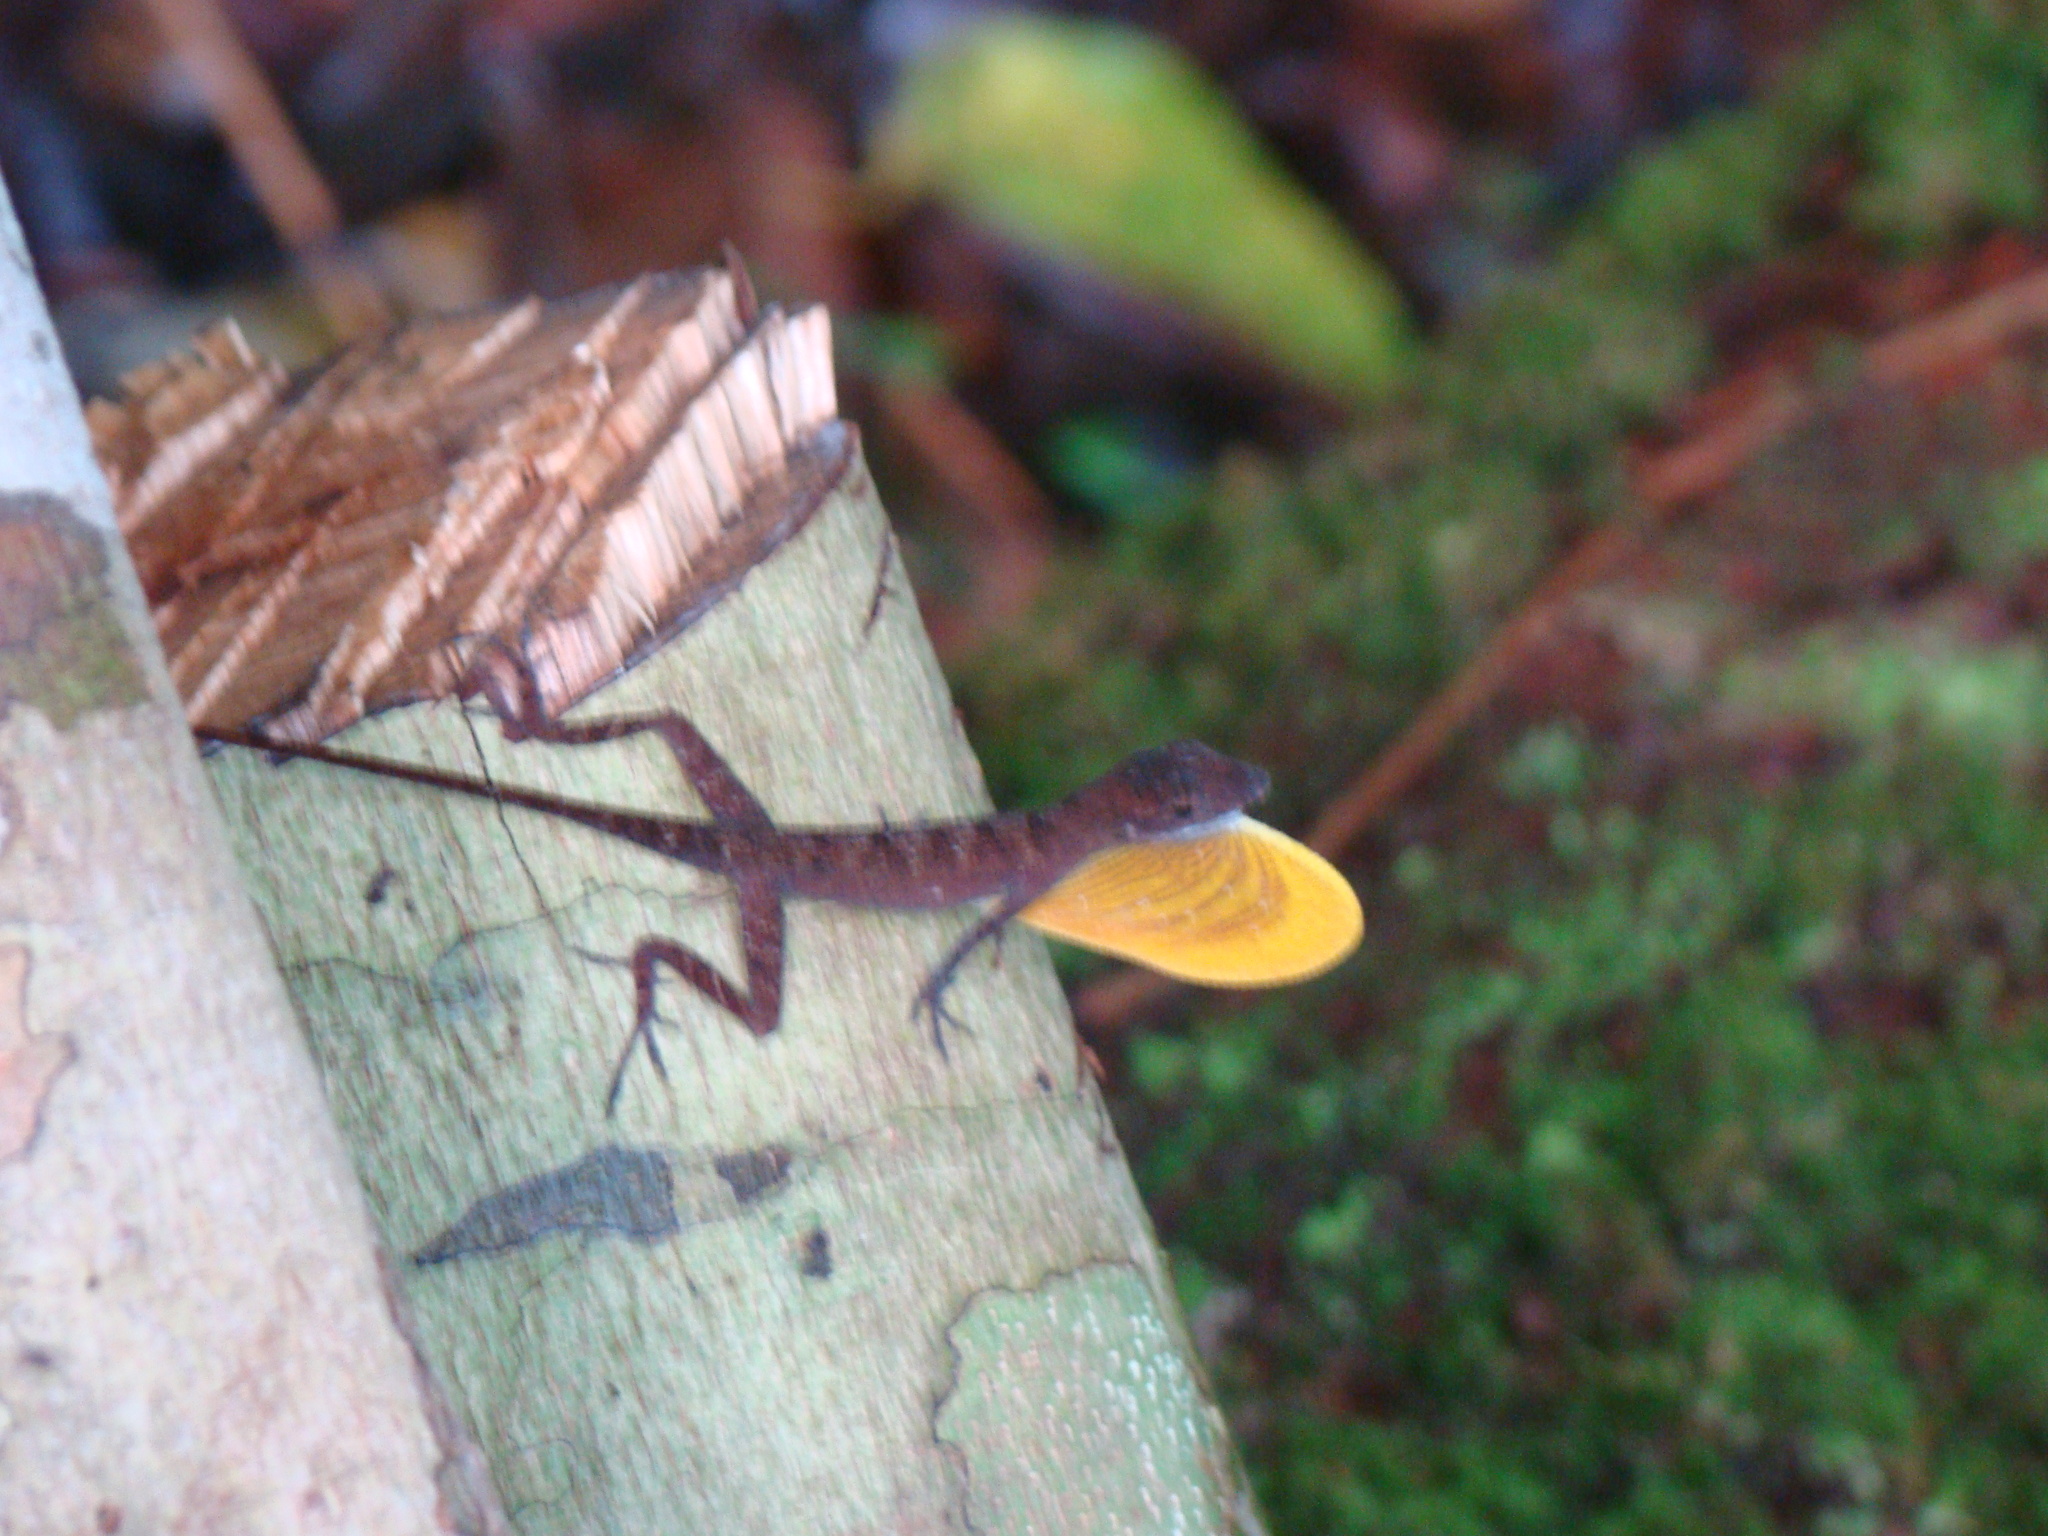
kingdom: Animalia
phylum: Chordata
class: Squamata
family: Dactyloidae
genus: Anolis
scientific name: Anolis osa
